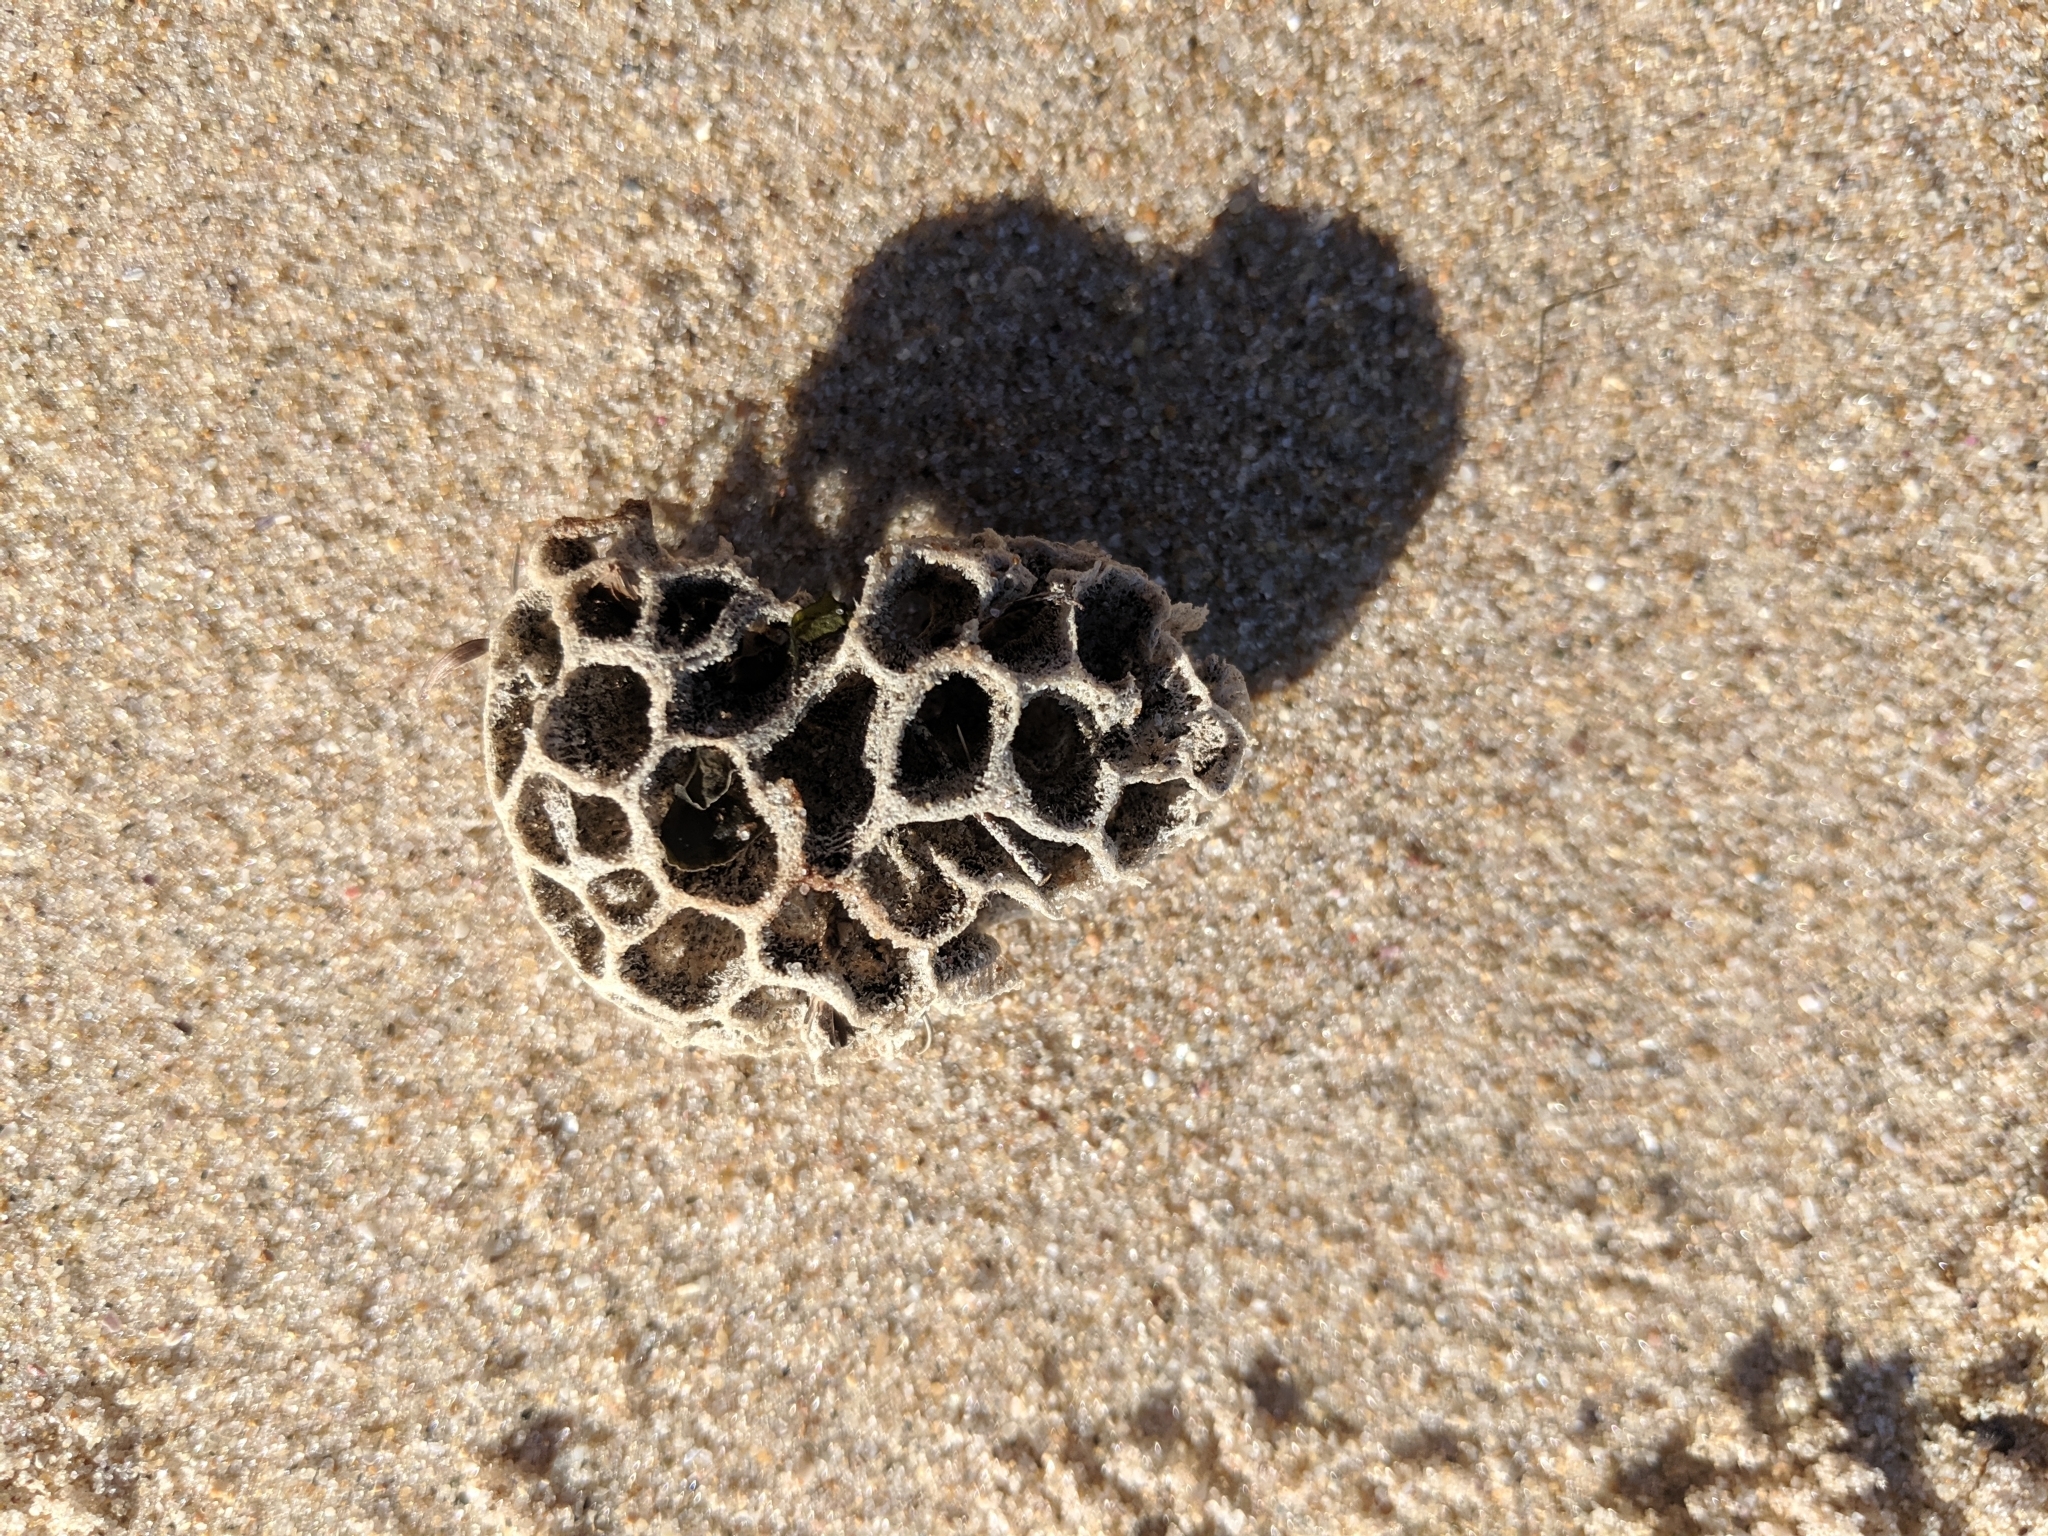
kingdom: Animalia
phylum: Porifera
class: Demospongiae
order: Poecilosclerida
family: Microcionidae
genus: Holopsamma
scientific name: Holopsamma laminaefavosa
